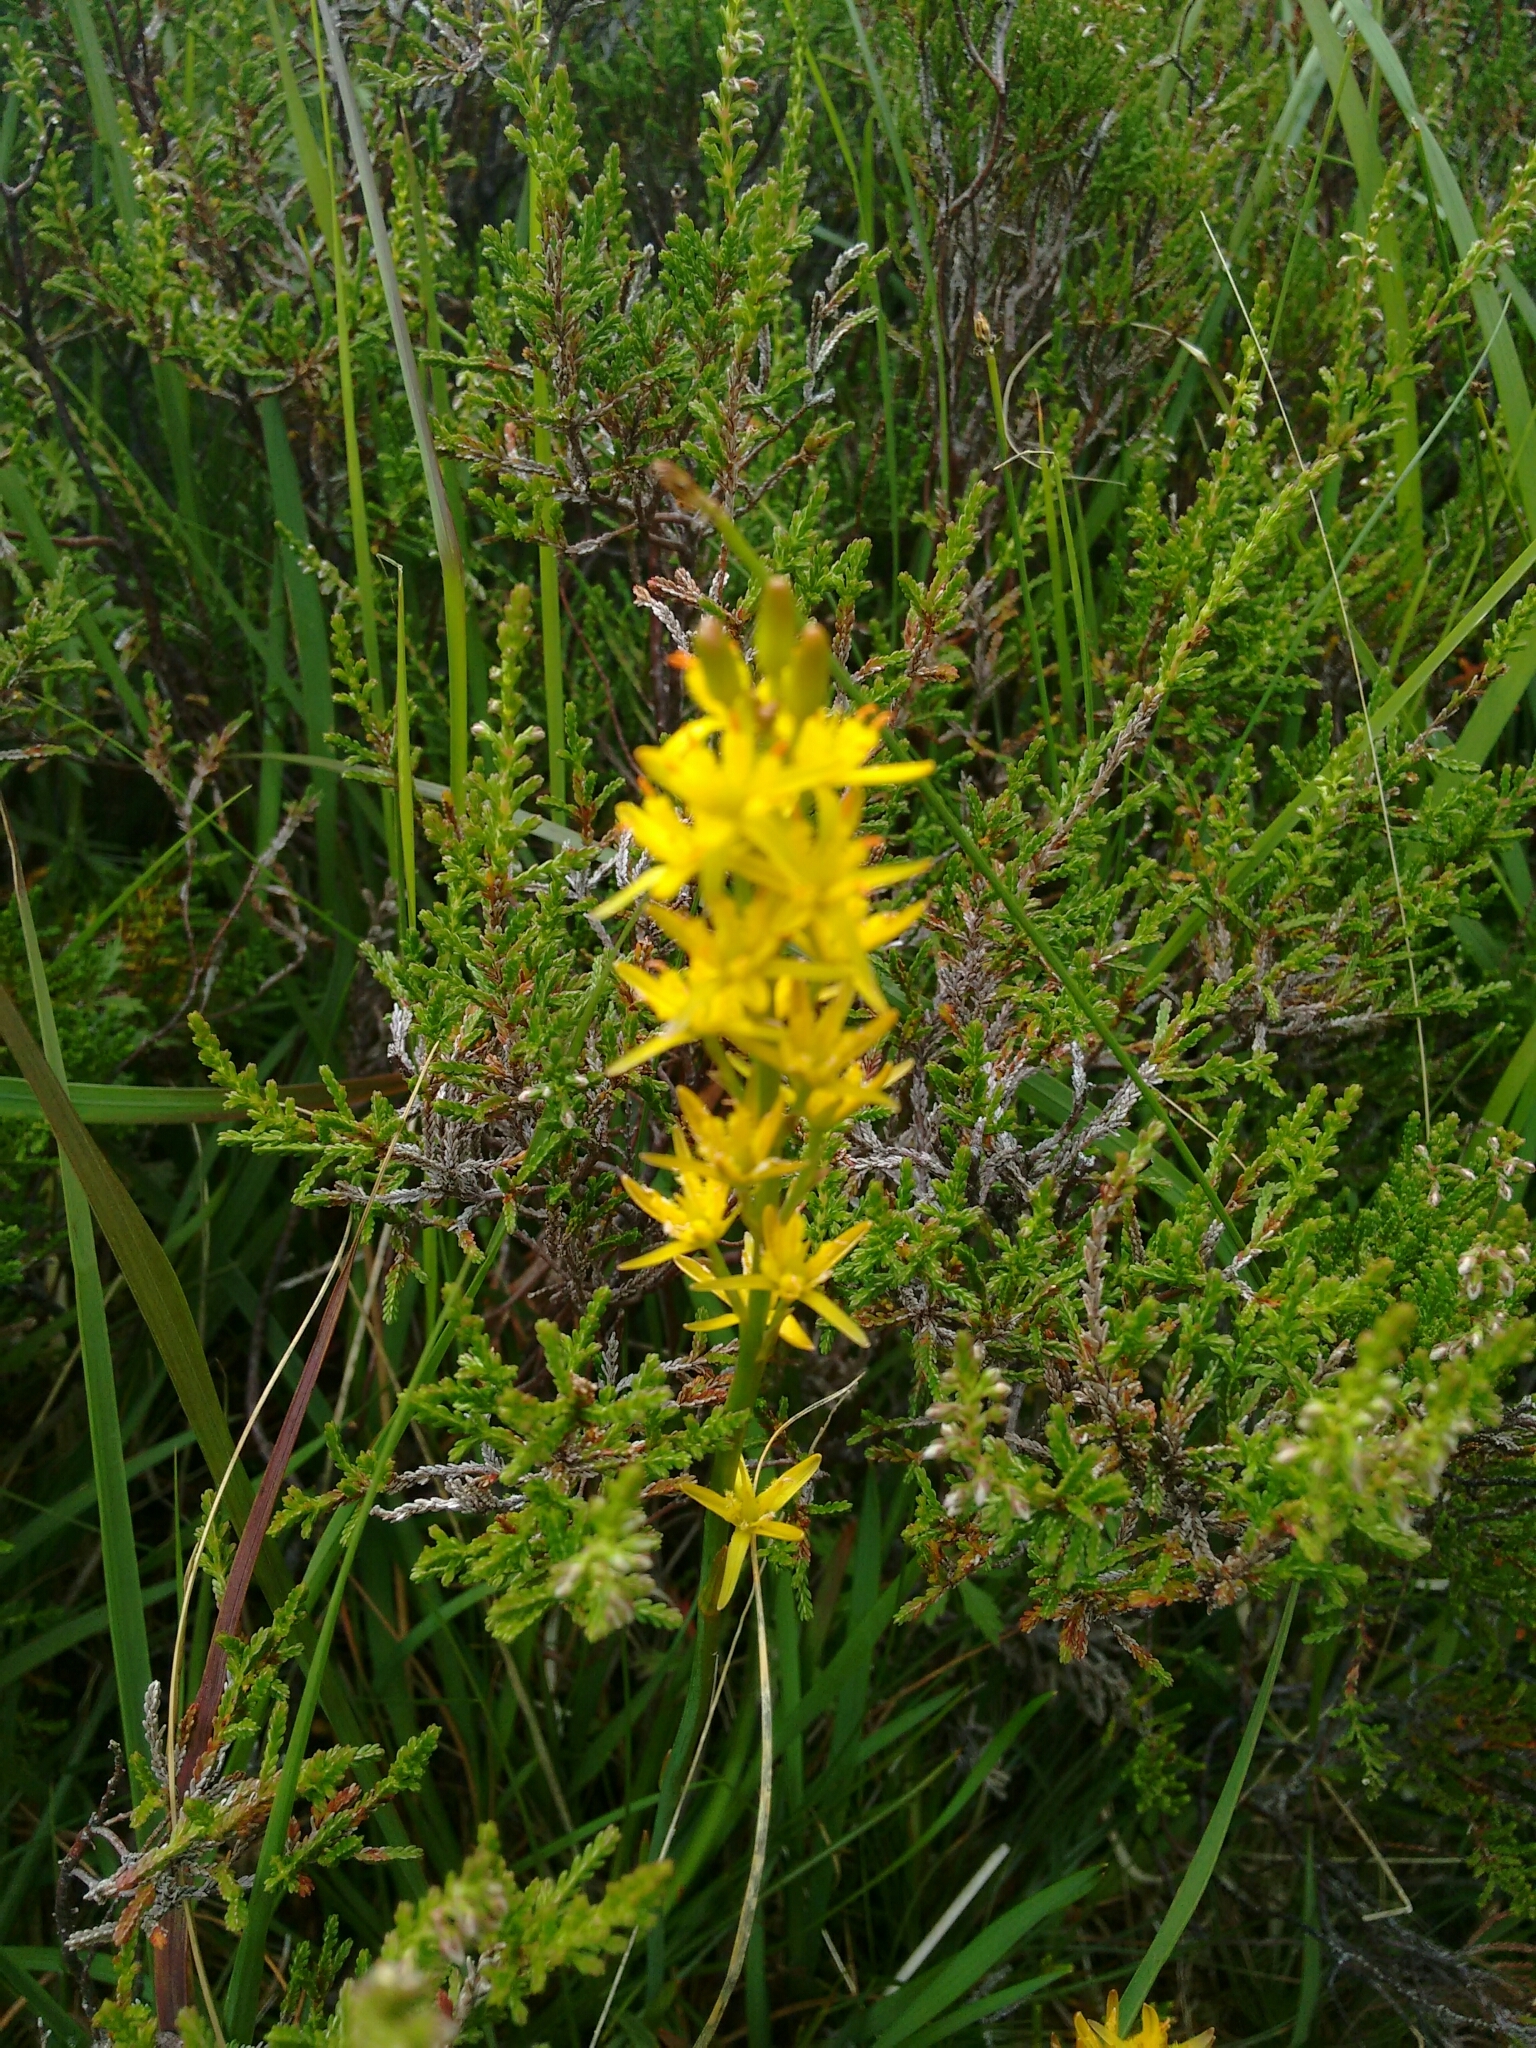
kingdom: Plantae
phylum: Tracheophyta
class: Liliopsida
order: Dioscoreales
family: Nartheciaceae
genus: Narthecium
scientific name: Narthecium ossifragum
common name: Bog asphodel
